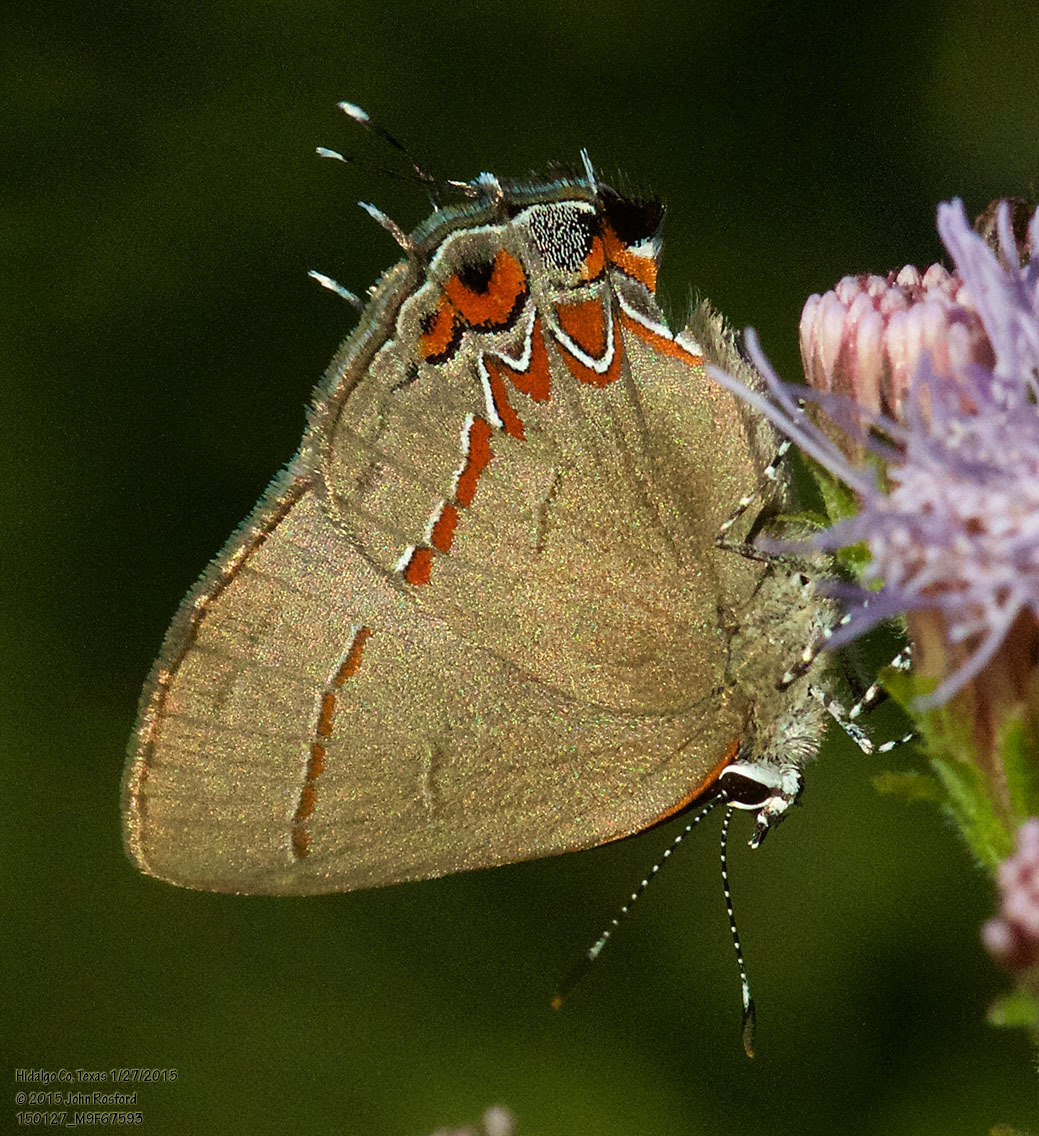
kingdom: Animalia
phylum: Arthropoda
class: Insecta
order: Lepidoptera
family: Lycaenidae
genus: Calycopis
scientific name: Calycopis isobeon
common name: Dusky-blue groundstreak
